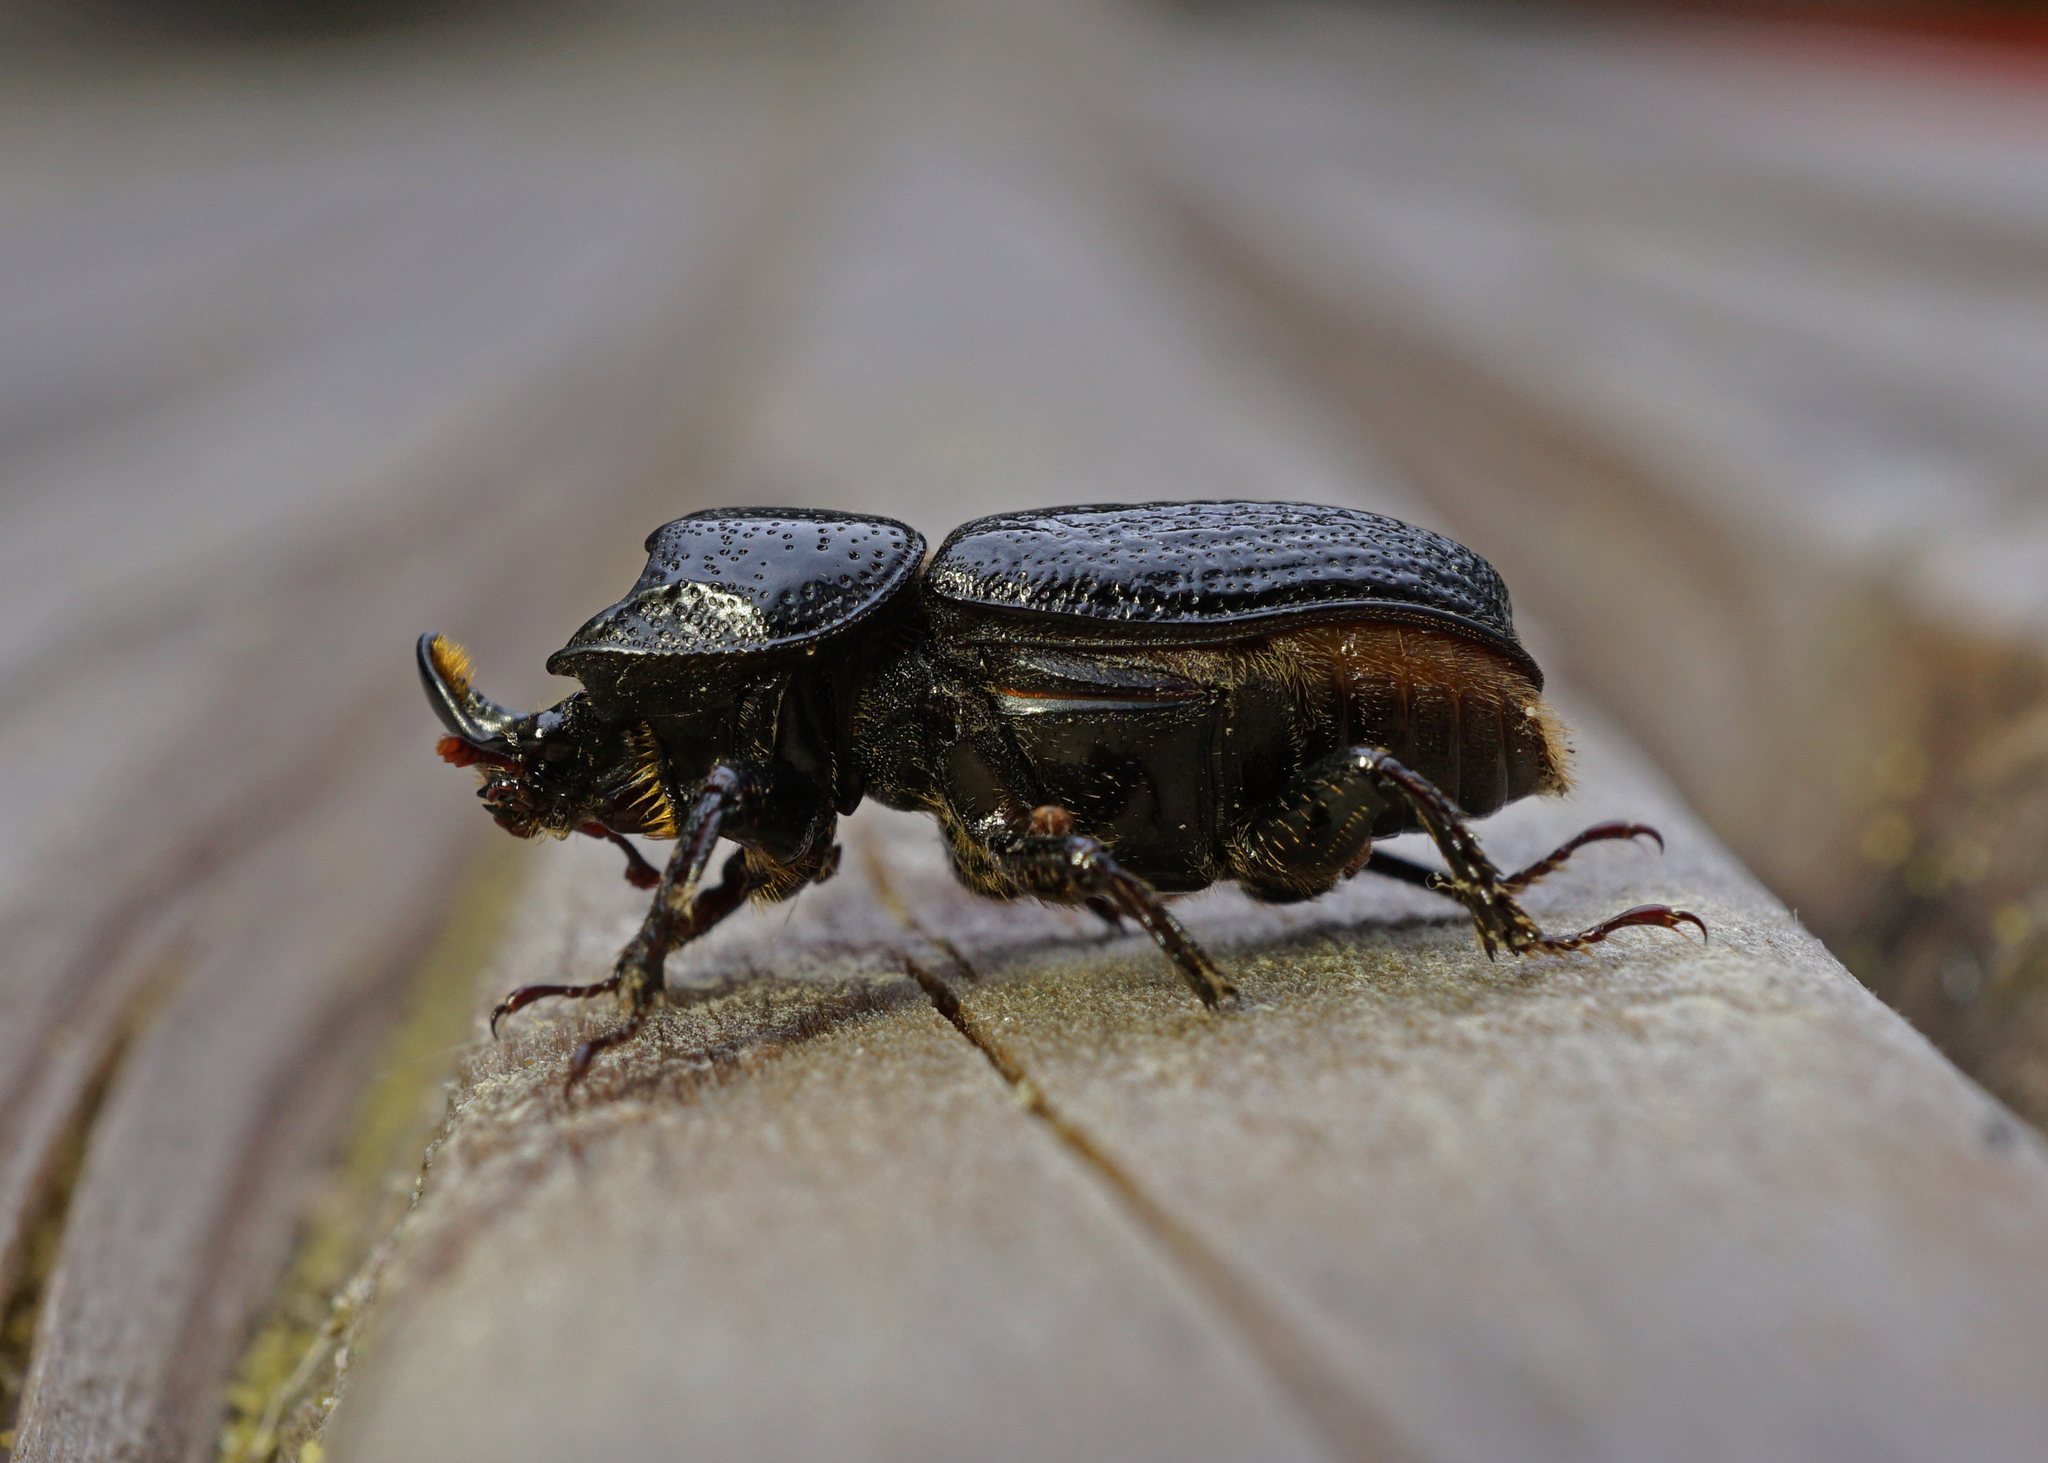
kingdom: Animalia
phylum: Arthropoda
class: Insecta
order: Coleoptera
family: Lucanidae
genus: Sinodendron
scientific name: Sinodendron cylindricum
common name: Rhinoceros beetle
